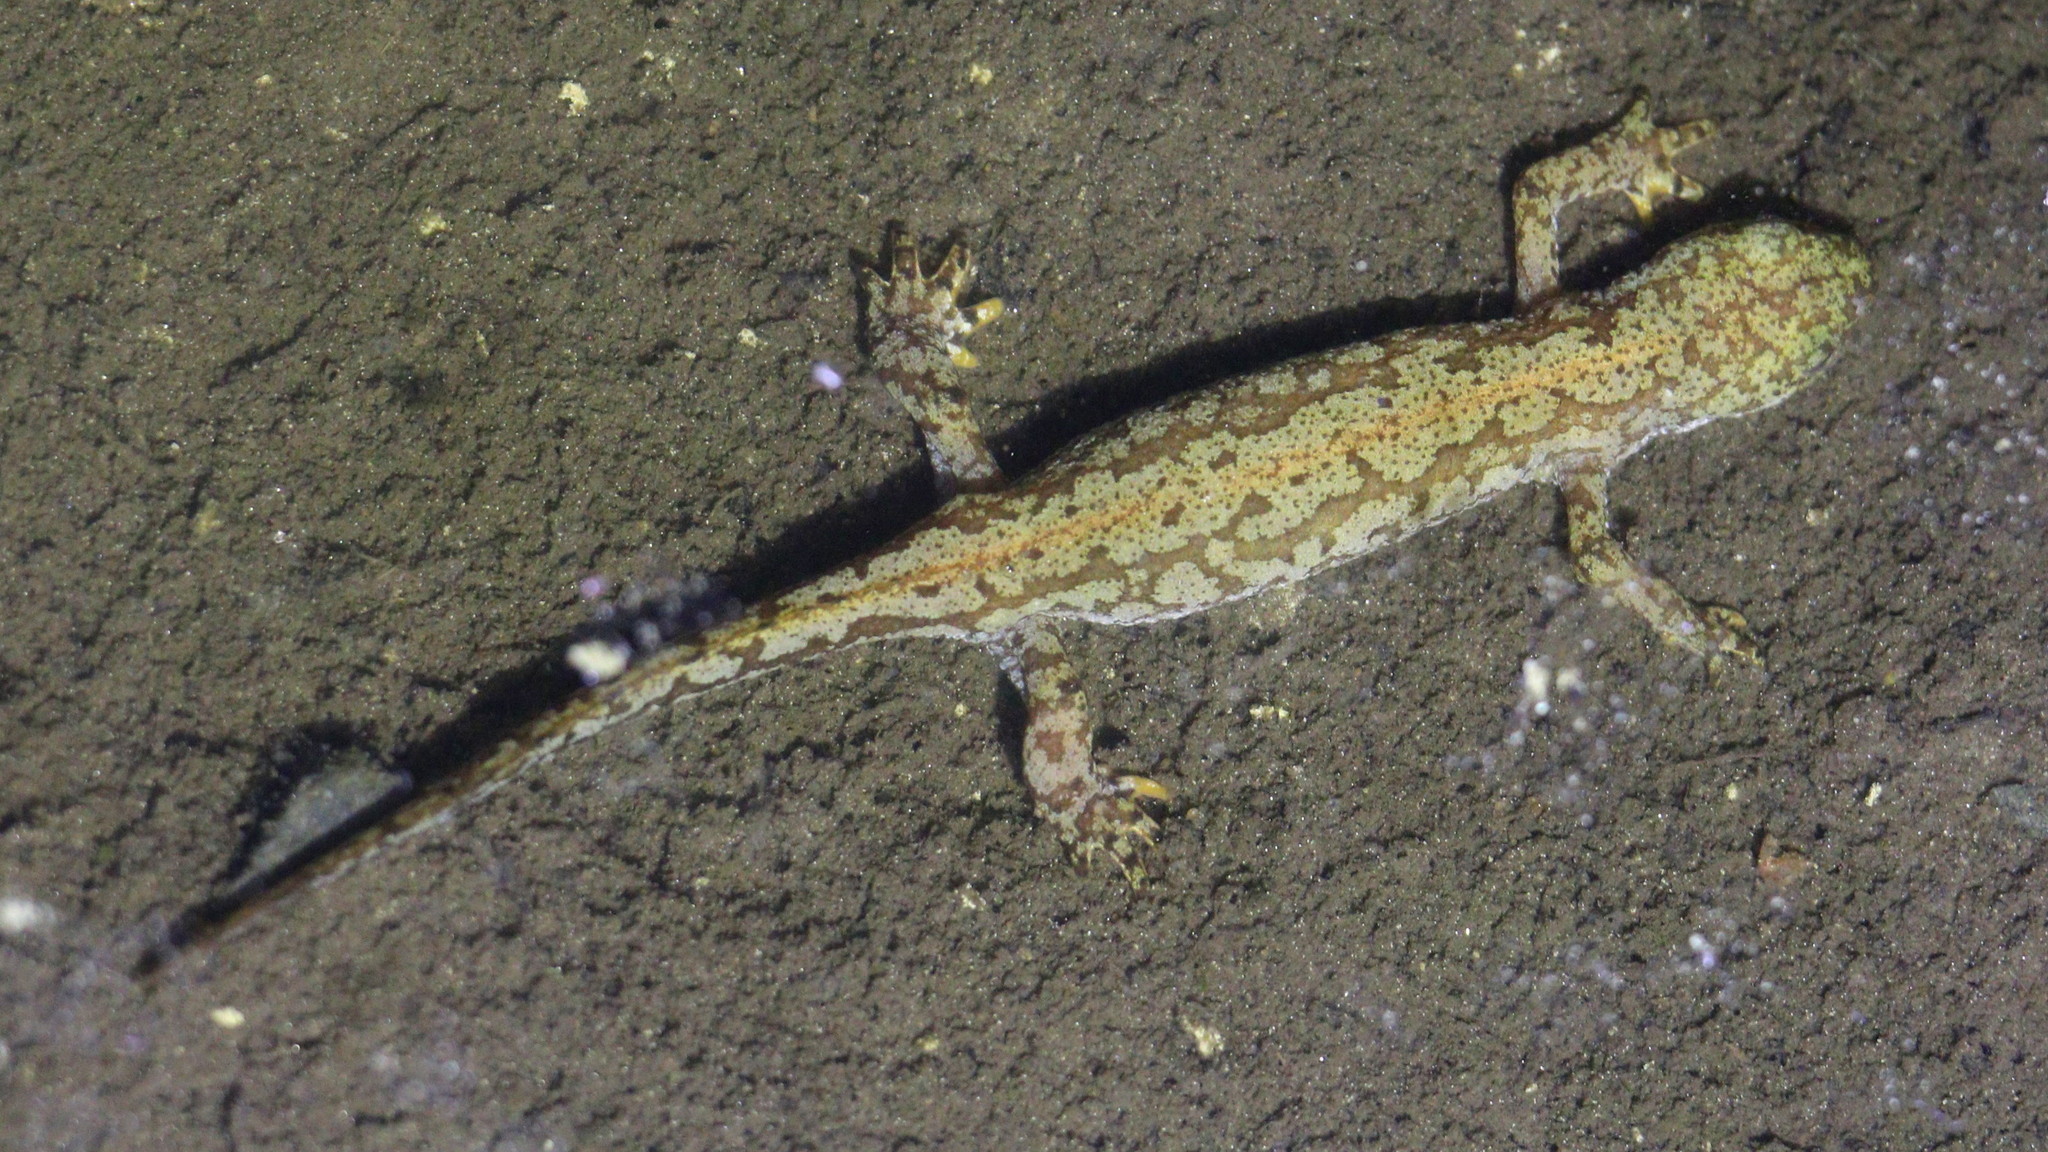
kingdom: Animalia
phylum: Chordata
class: Amphibia
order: Caudata
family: Salamandridae
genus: Ichthyosaura
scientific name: Ichthyosaura alpestris
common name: Alpine newt
